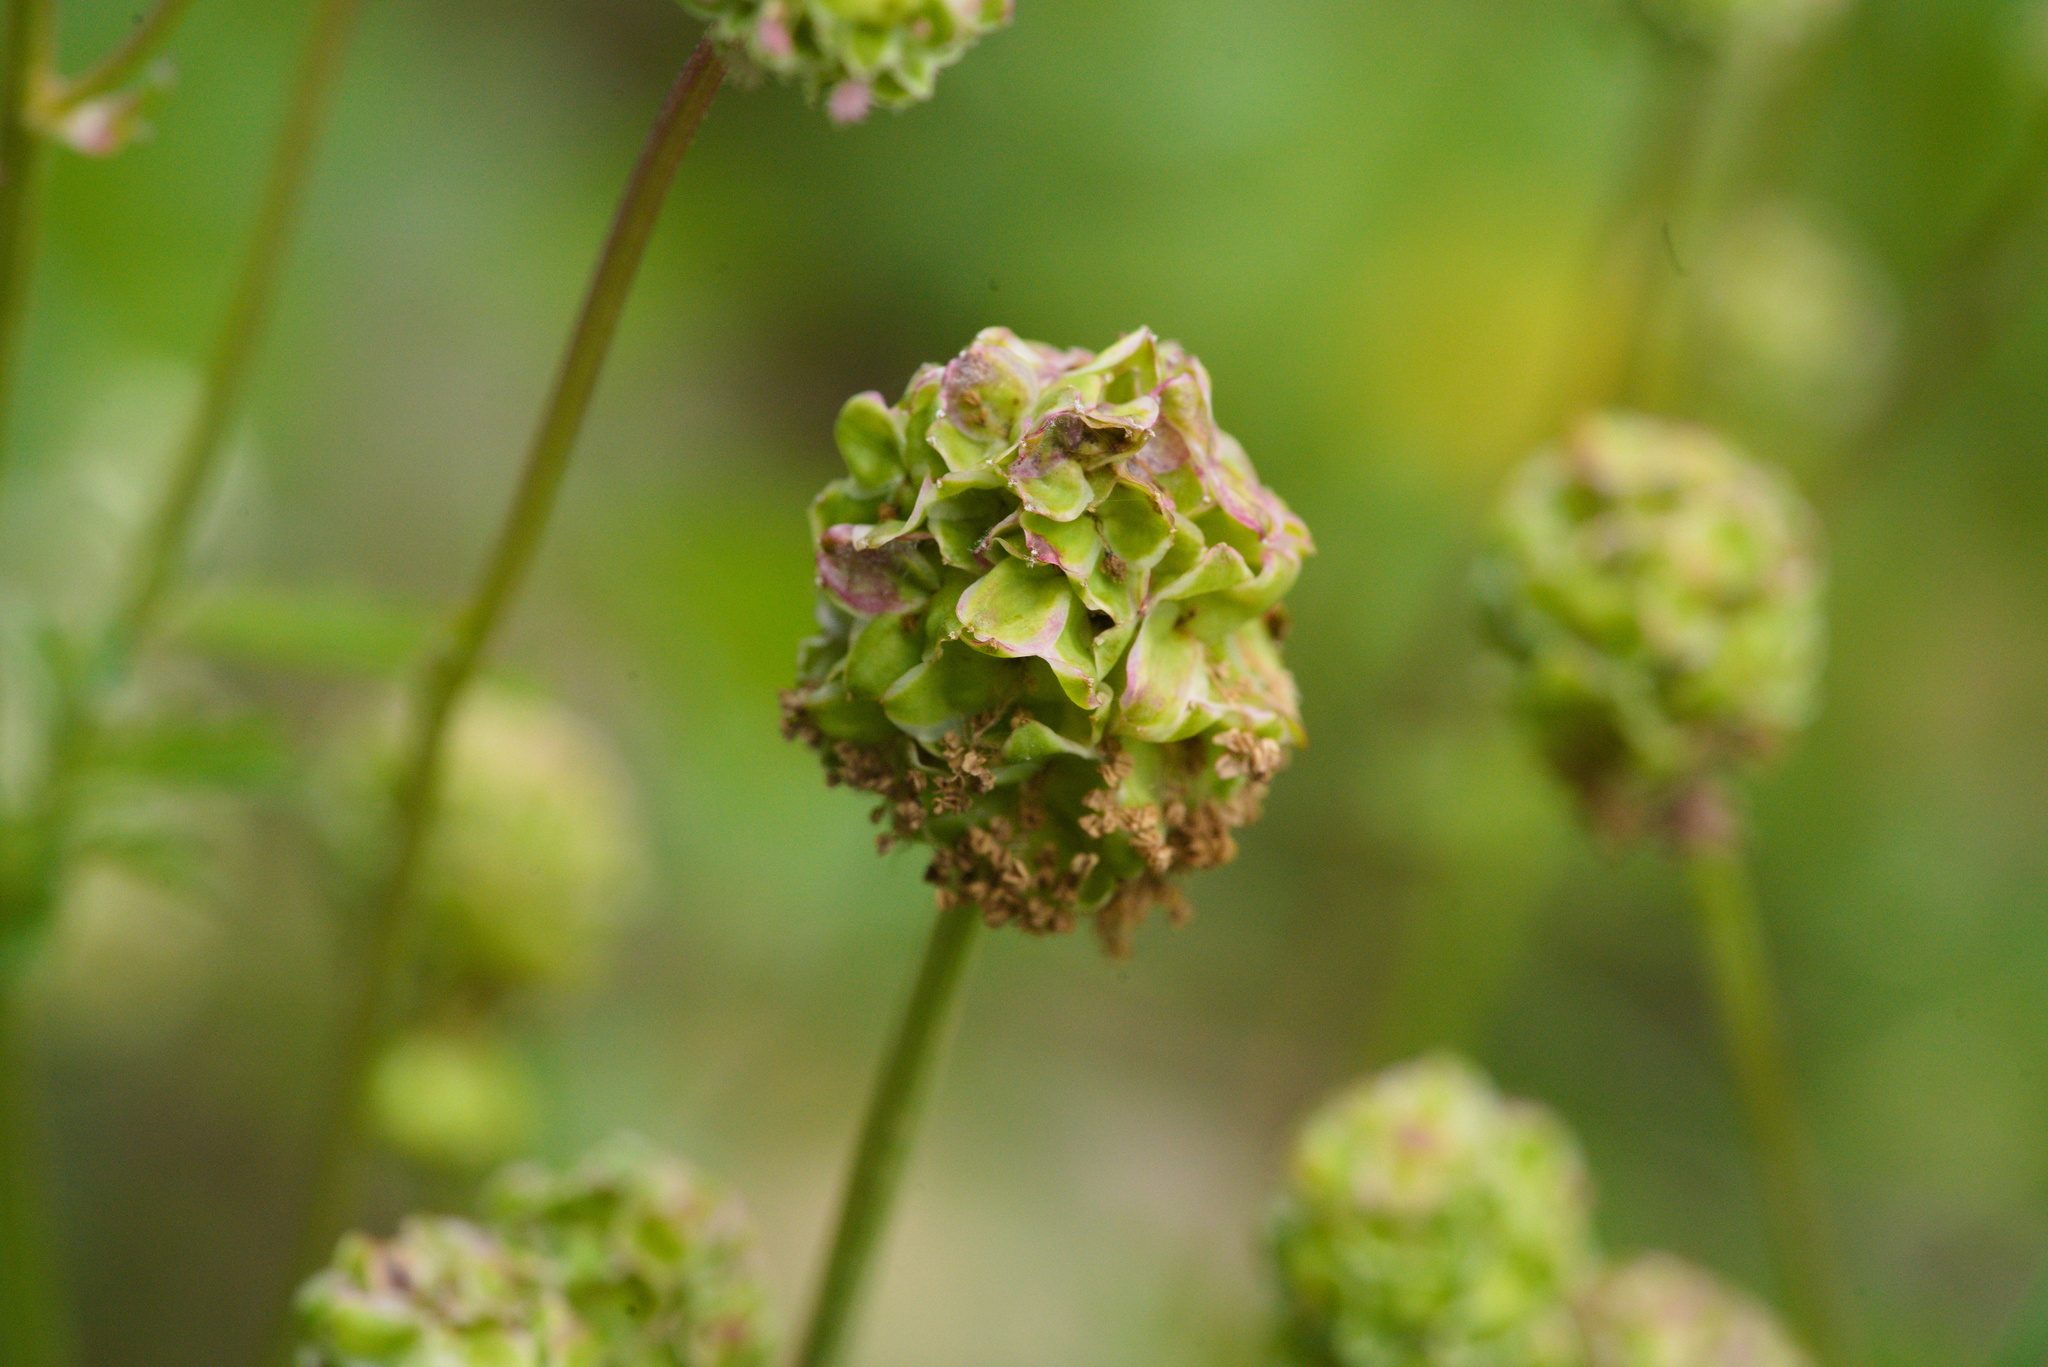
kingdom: Plantae
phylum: Tracheophyta
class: Magnoliopsida
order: Rosales
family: Rosaceae
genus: Poterium
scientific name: Poterium sanguisorba
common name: Salad burnet
